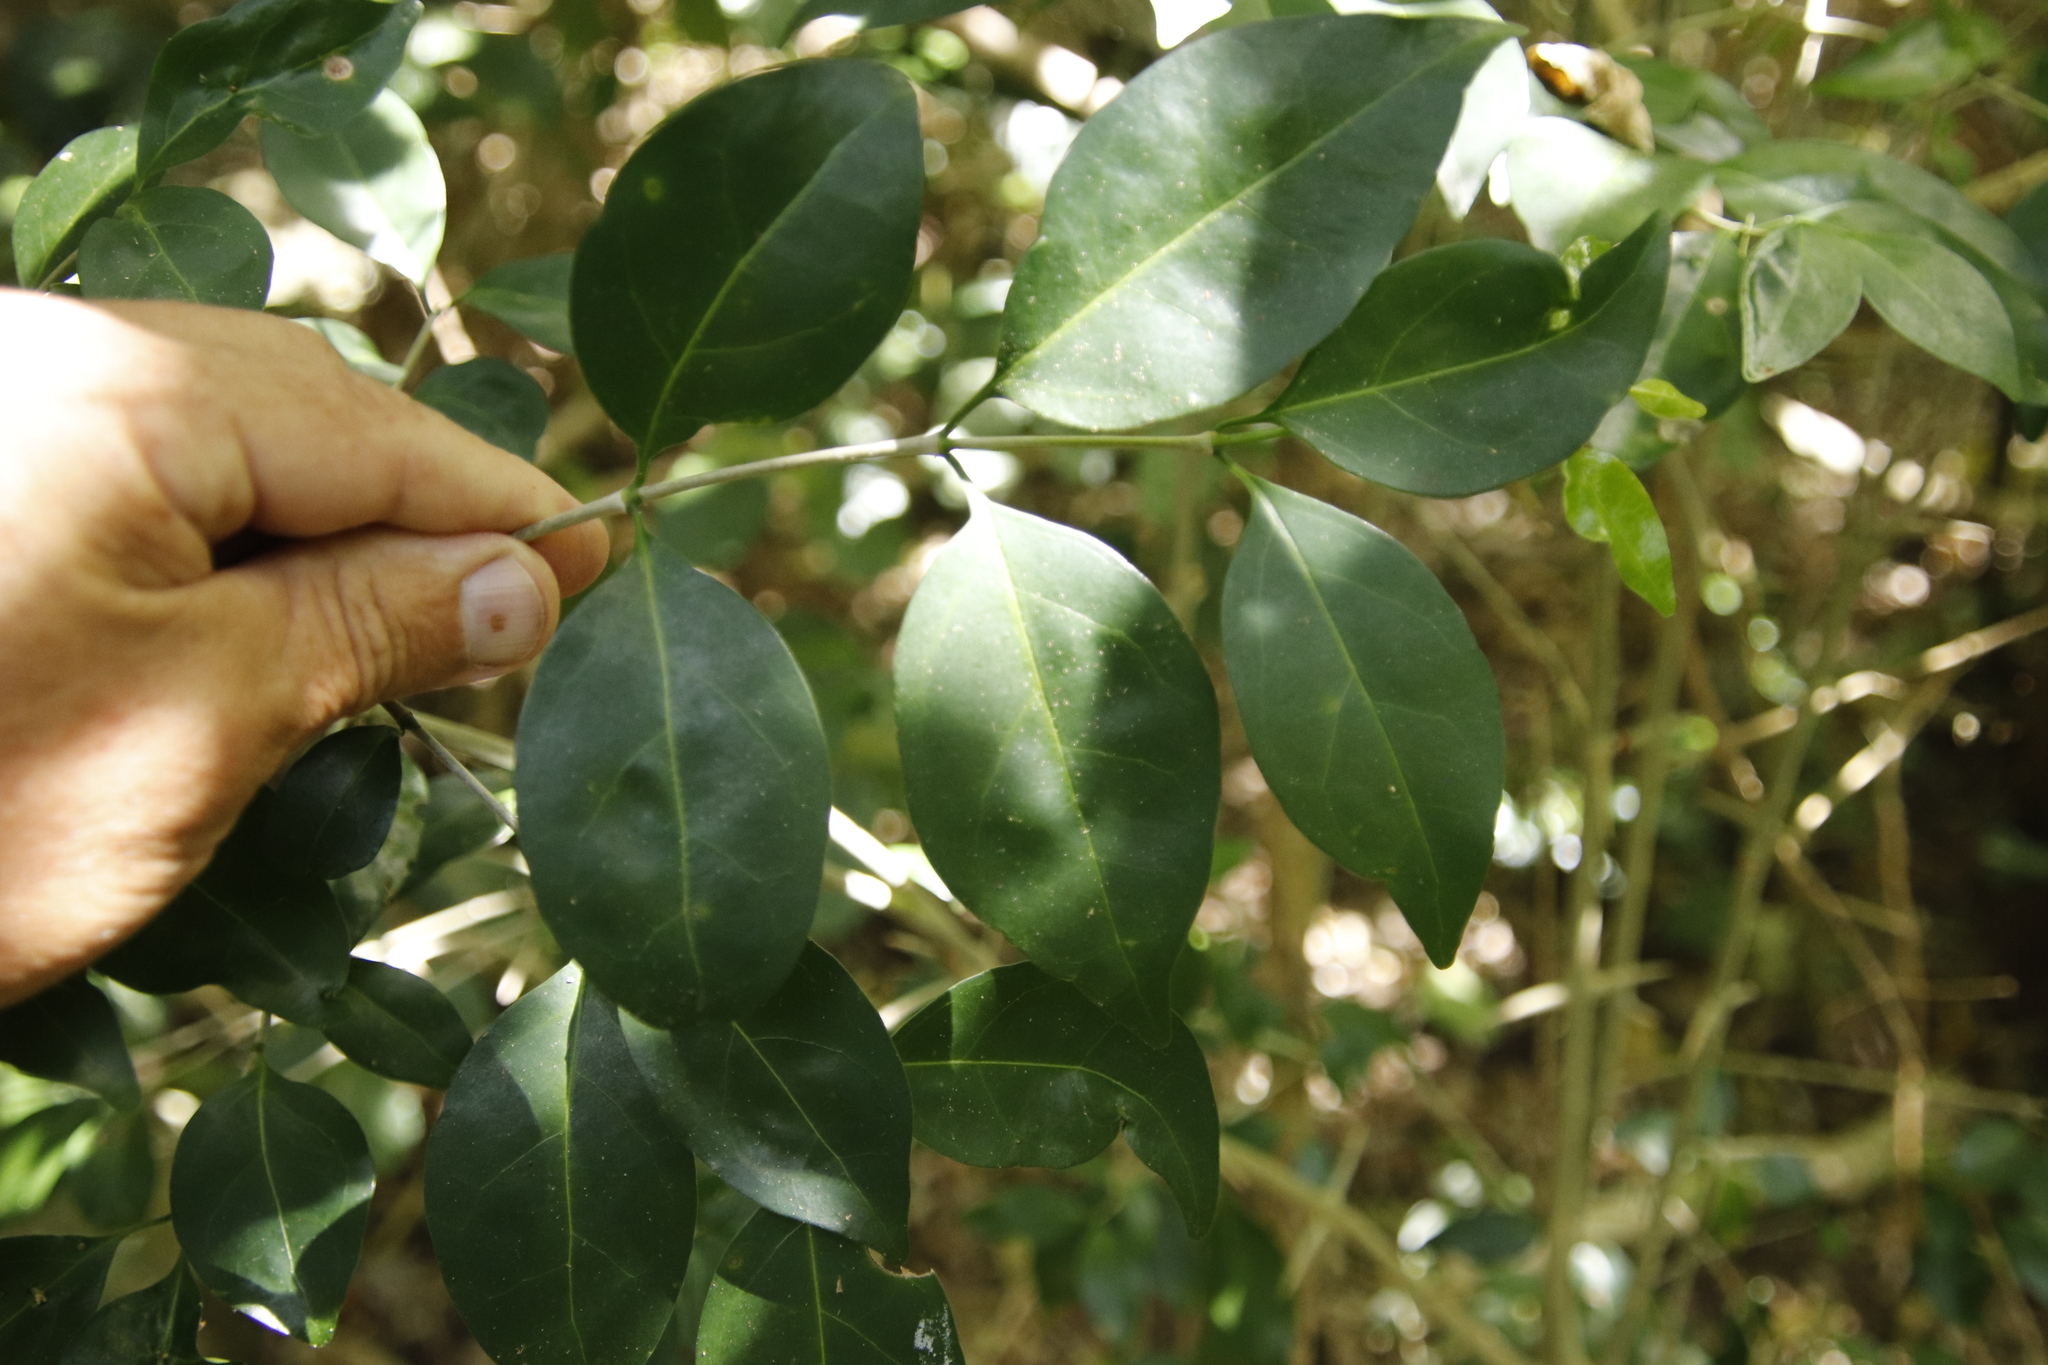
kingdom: Plantae
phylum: Tracheophyta
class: Magnoliopsida
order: Gentianales
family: Rubiaceae
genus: Canthium
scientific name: Canthium inerme
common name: Unarmed turkey-berry
